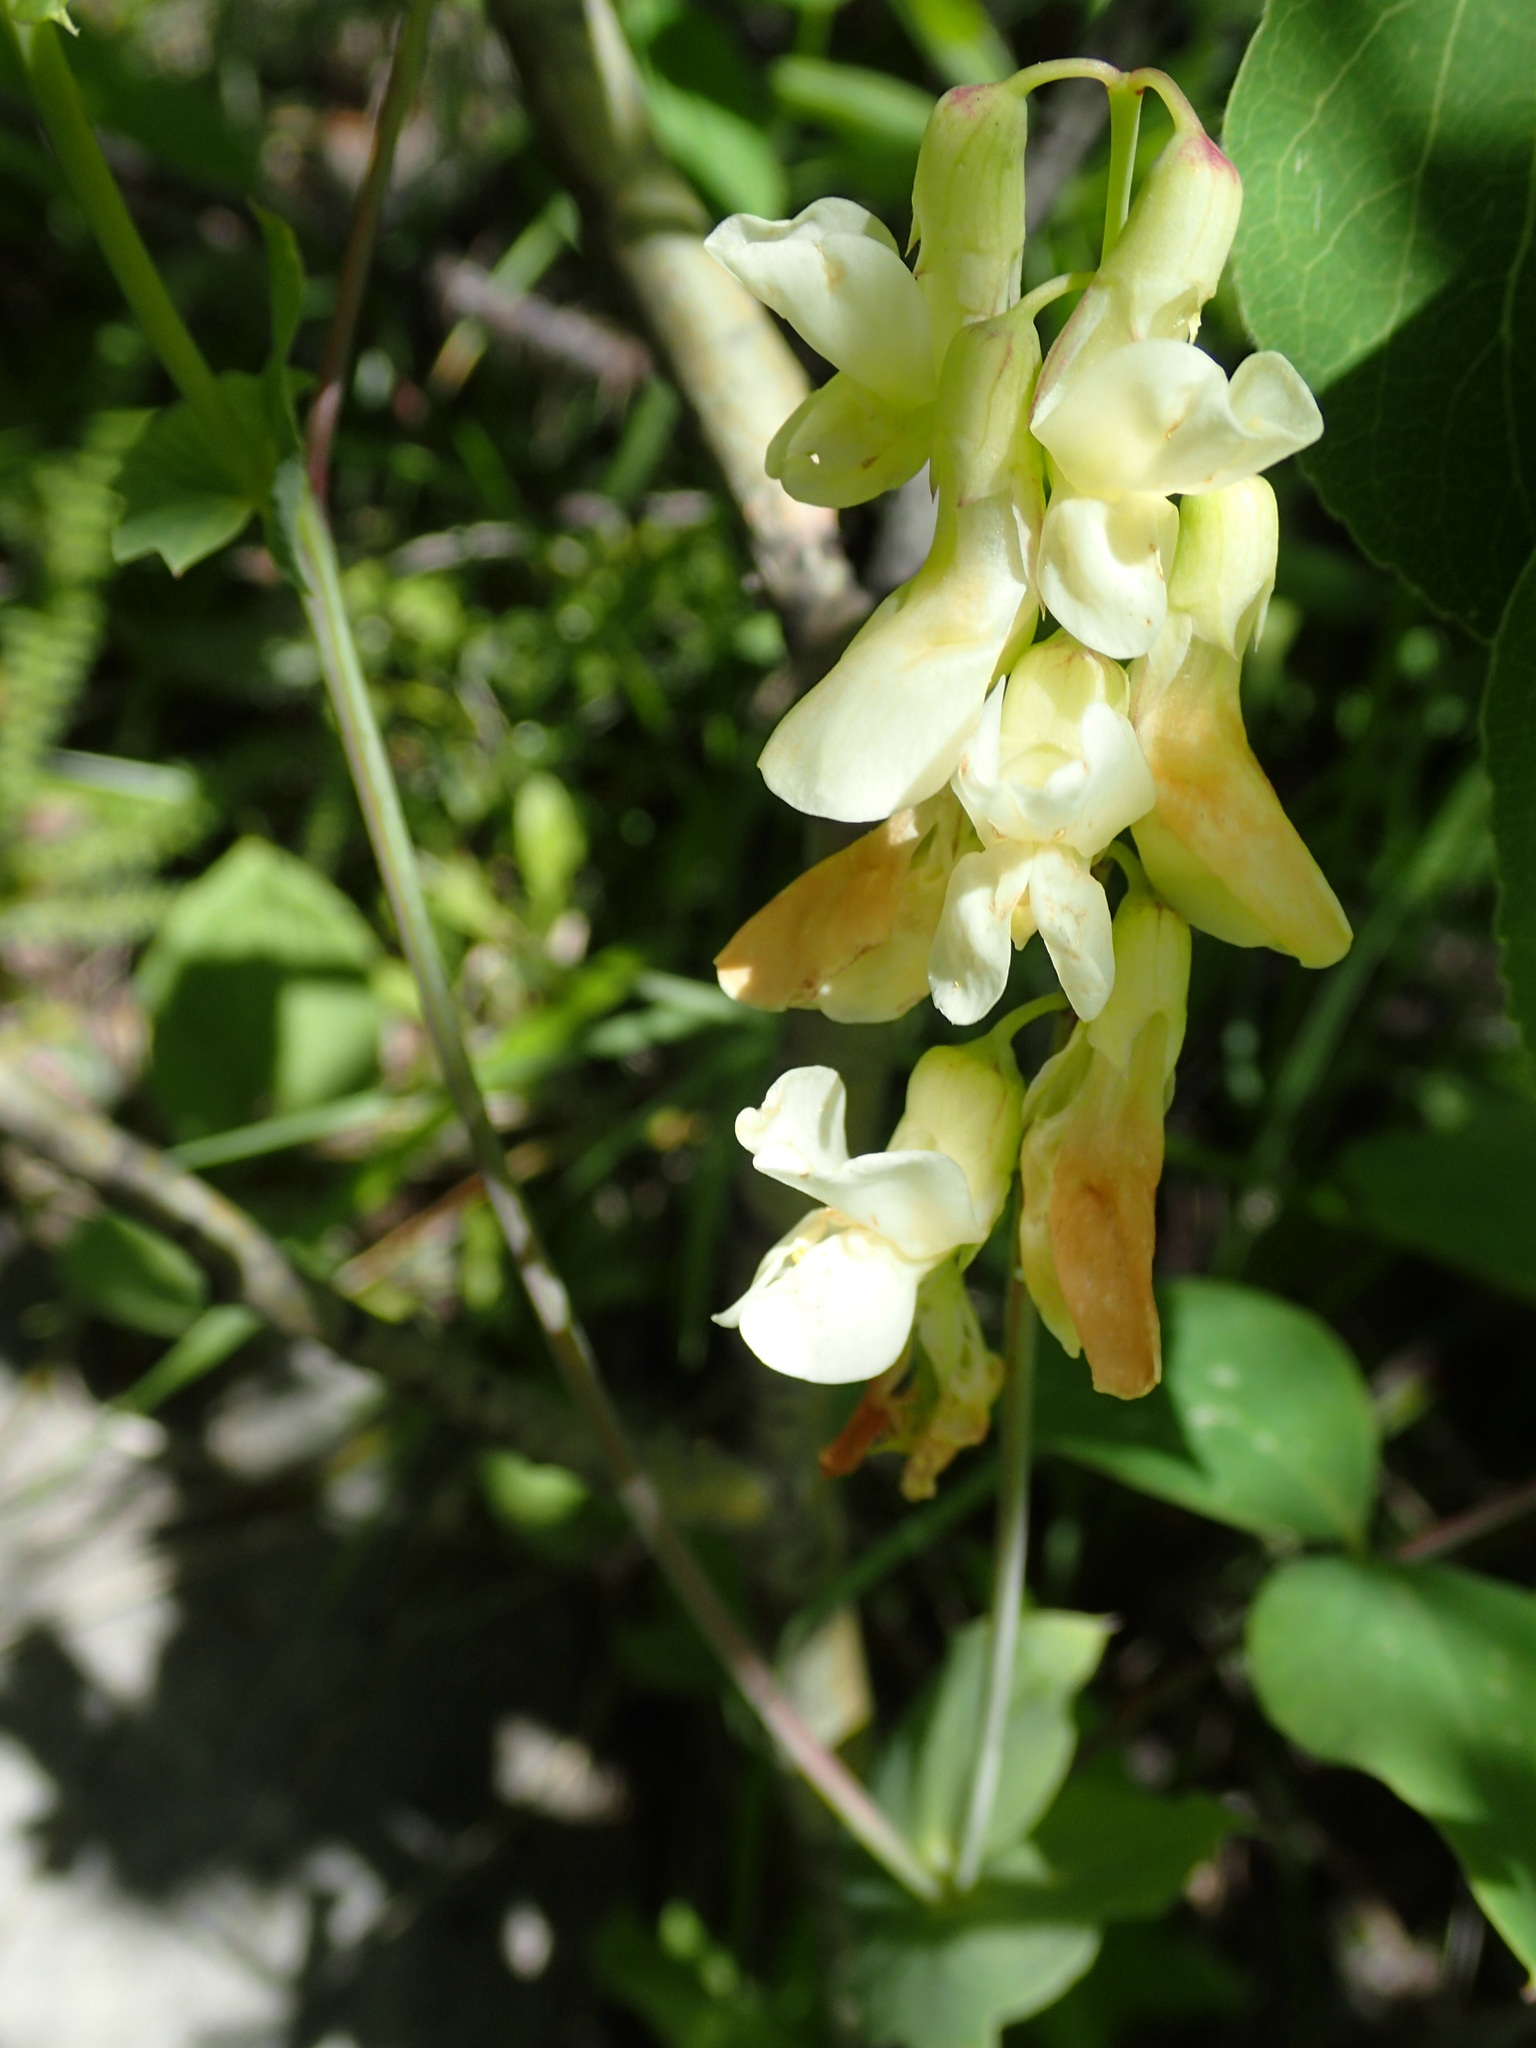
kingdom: Plantae
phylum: Tracheophyta
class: Magnoliopsida
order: Fabales
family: Fabaceae
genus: Lathyrus
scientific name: Lathyrus ochroleucus
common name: Pale vetchling
